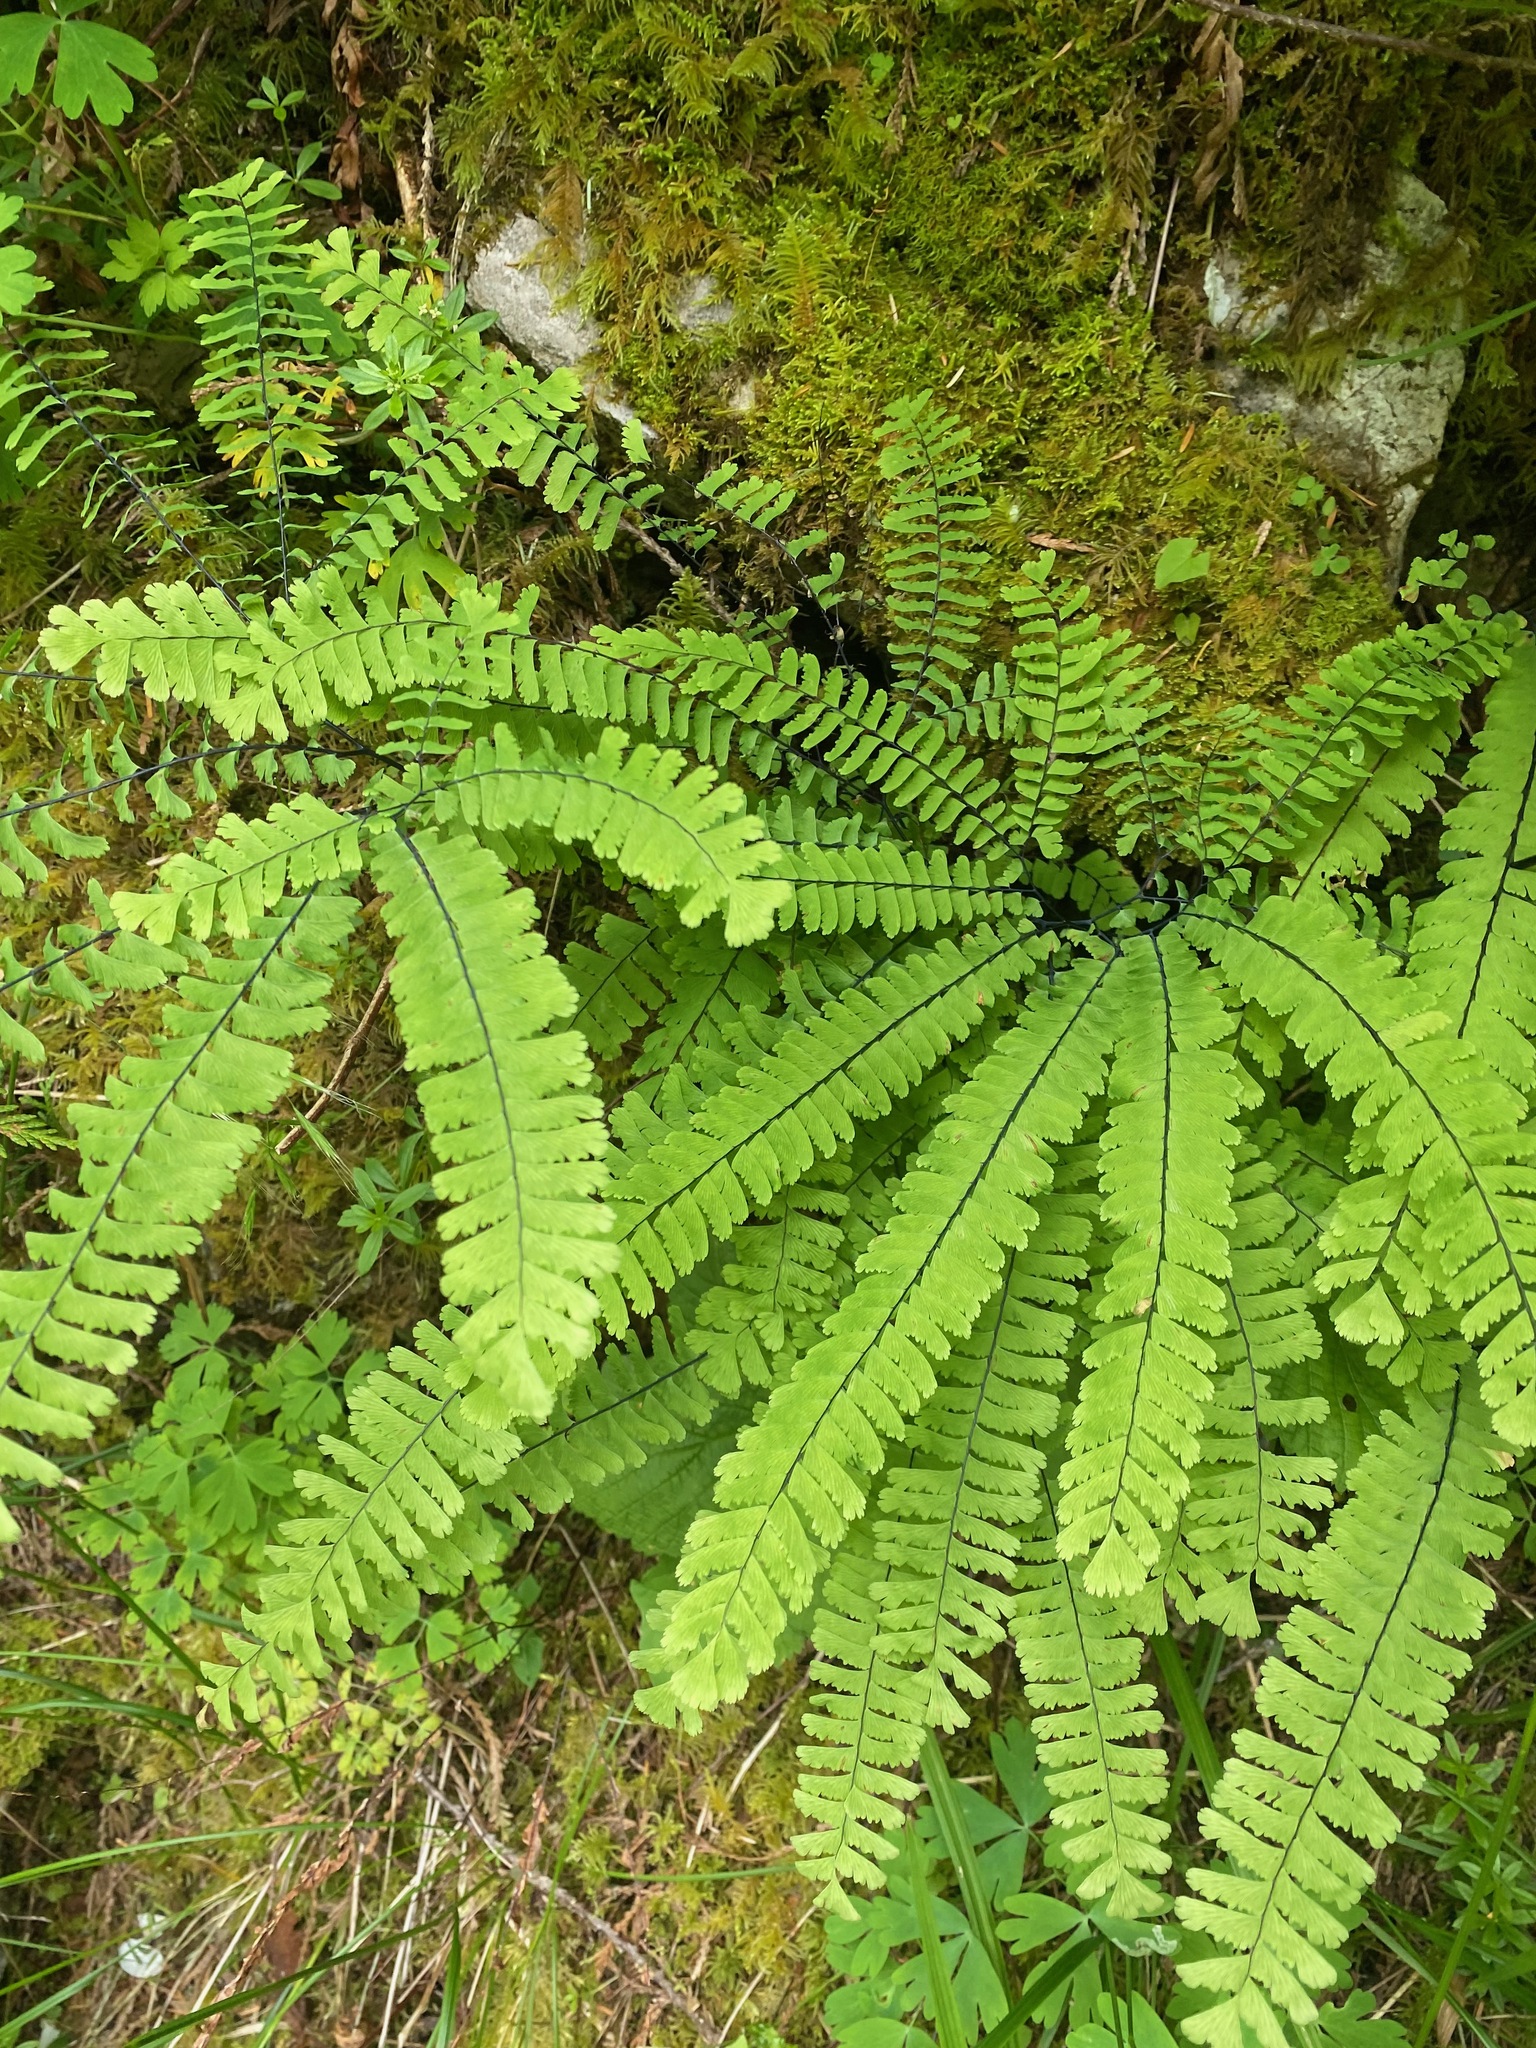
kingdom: Plantae
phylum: Tracheophyta
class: Polypodiopsida
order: Polypodiales
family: Pteridaceae
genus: Adiantum
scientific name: Adiantum aleuticum
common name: Aleutian maidenhair fern
